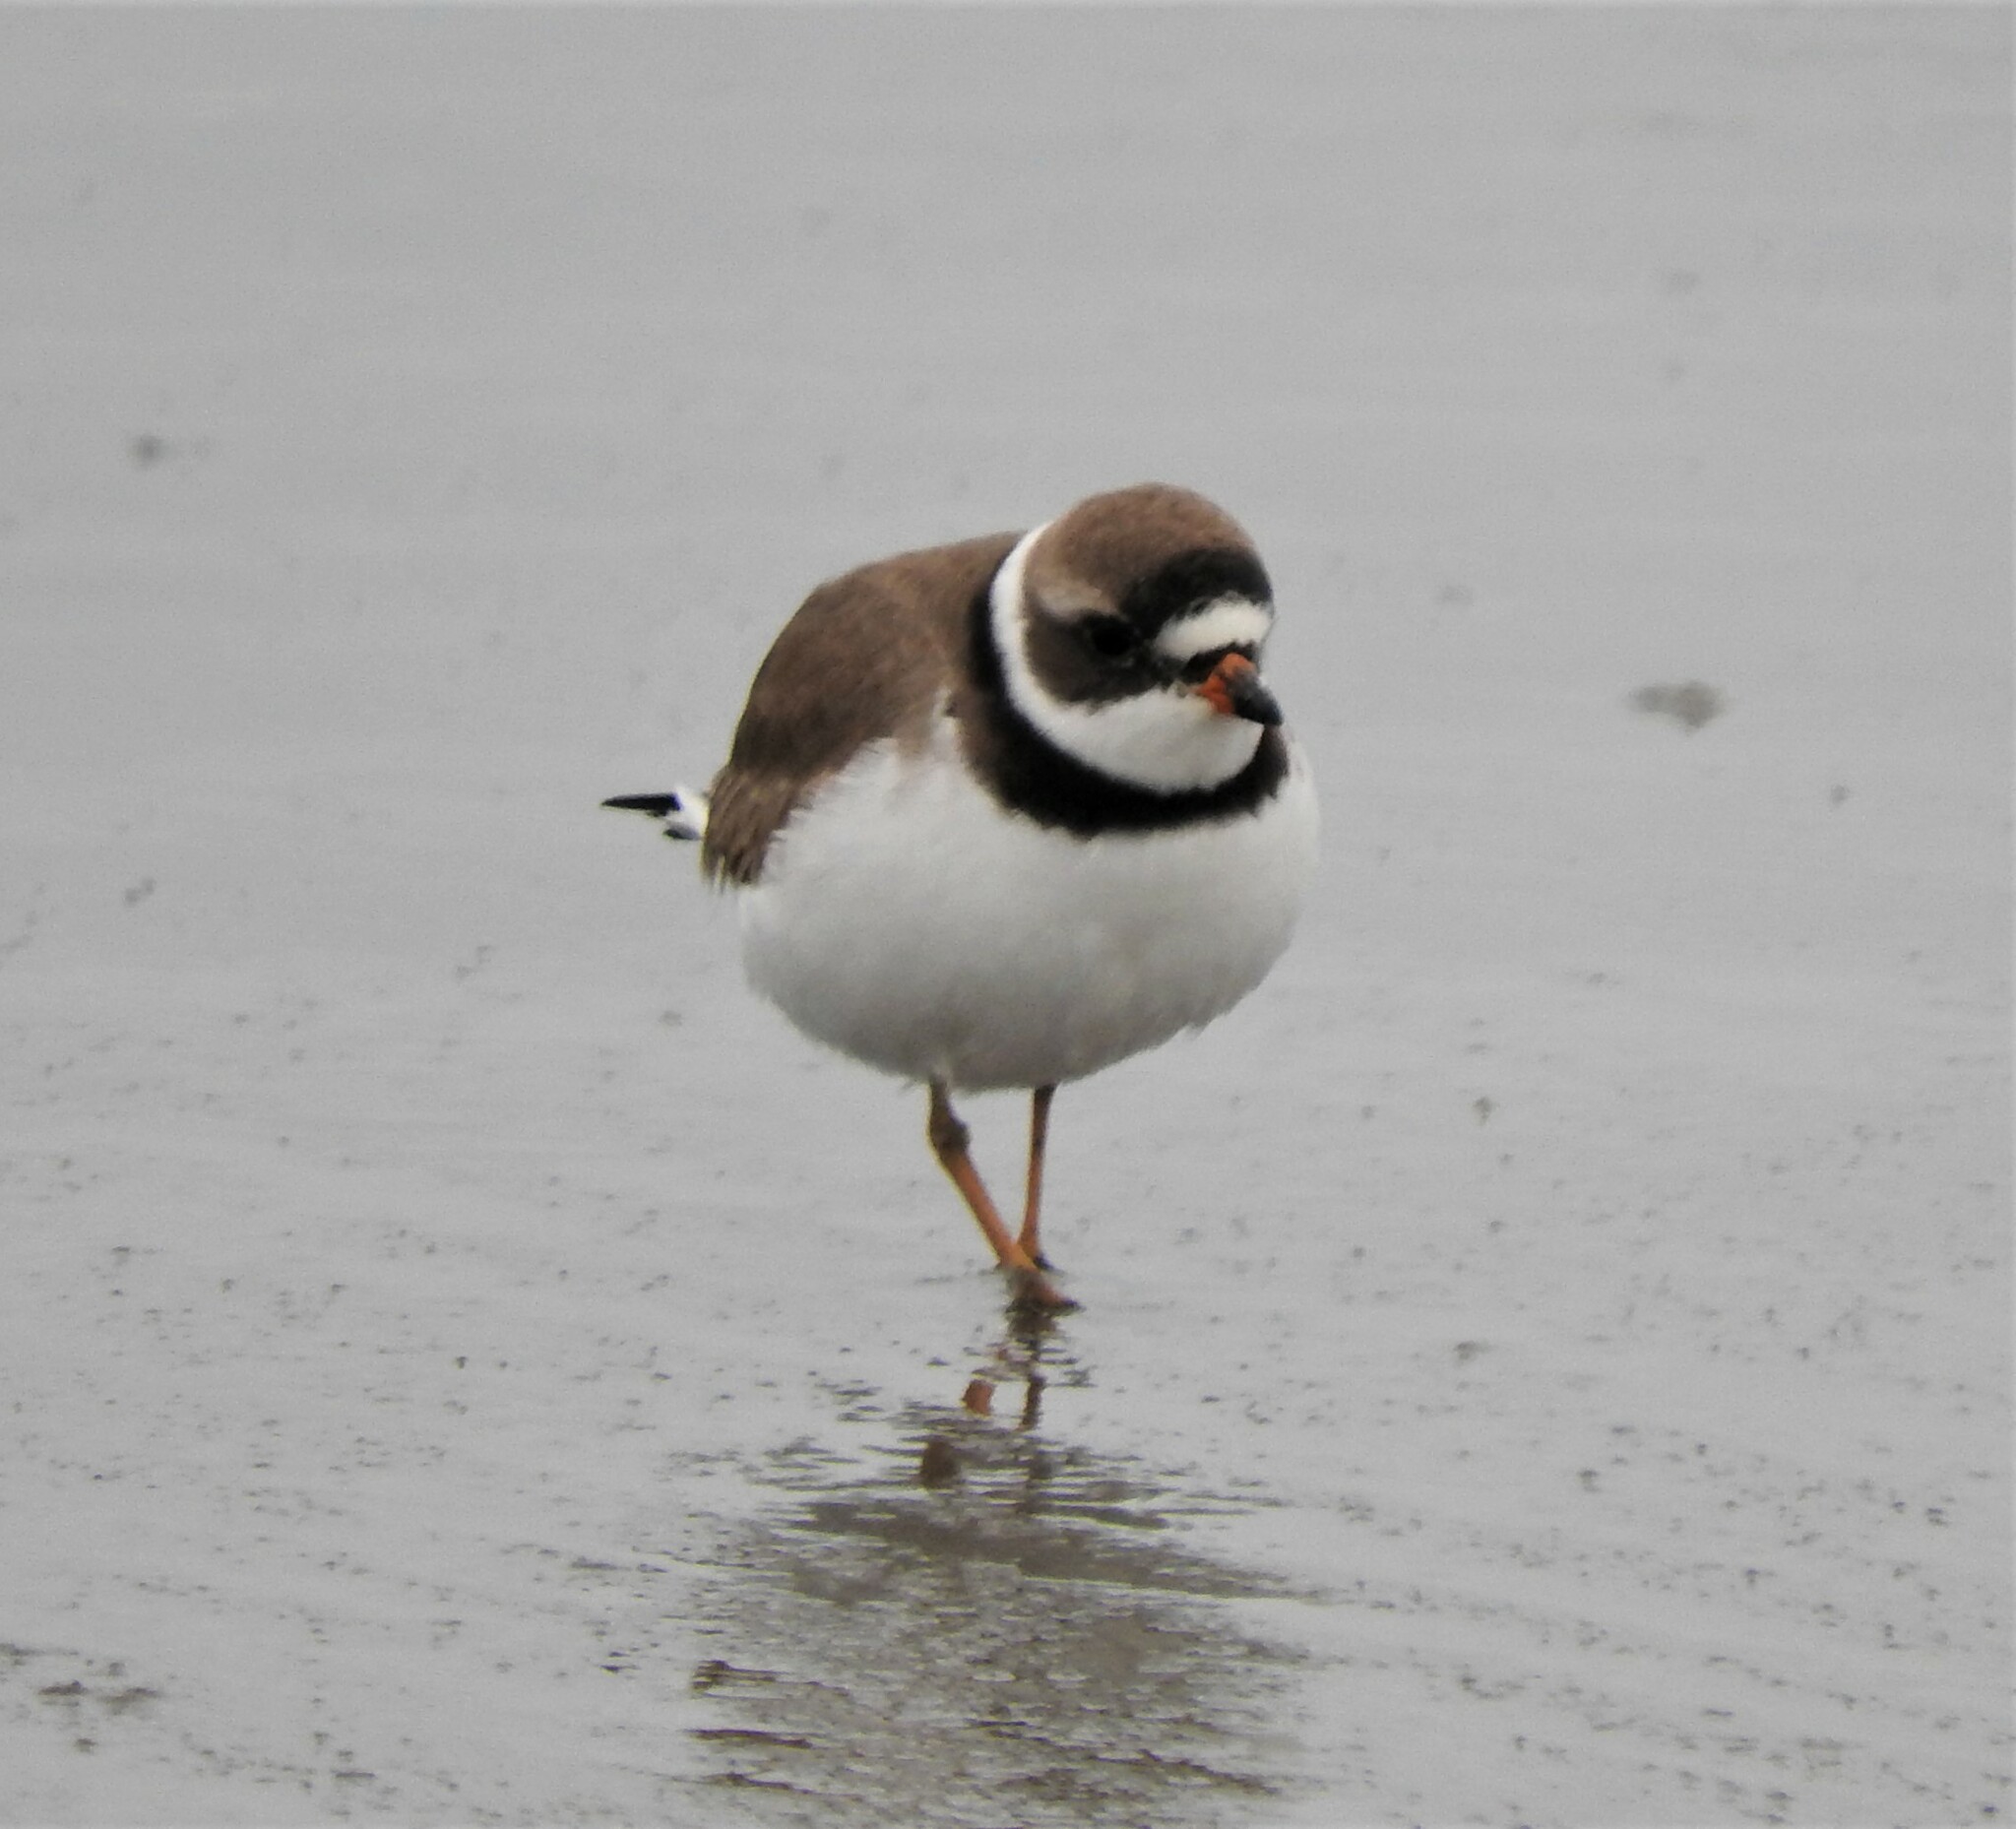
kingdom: Animalia
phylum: Chordata
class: Aves
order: Charadriiformes
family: Charadriidae
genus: Charadrius
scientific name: Charadrius semipalmatus
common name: Semipalmated plover
